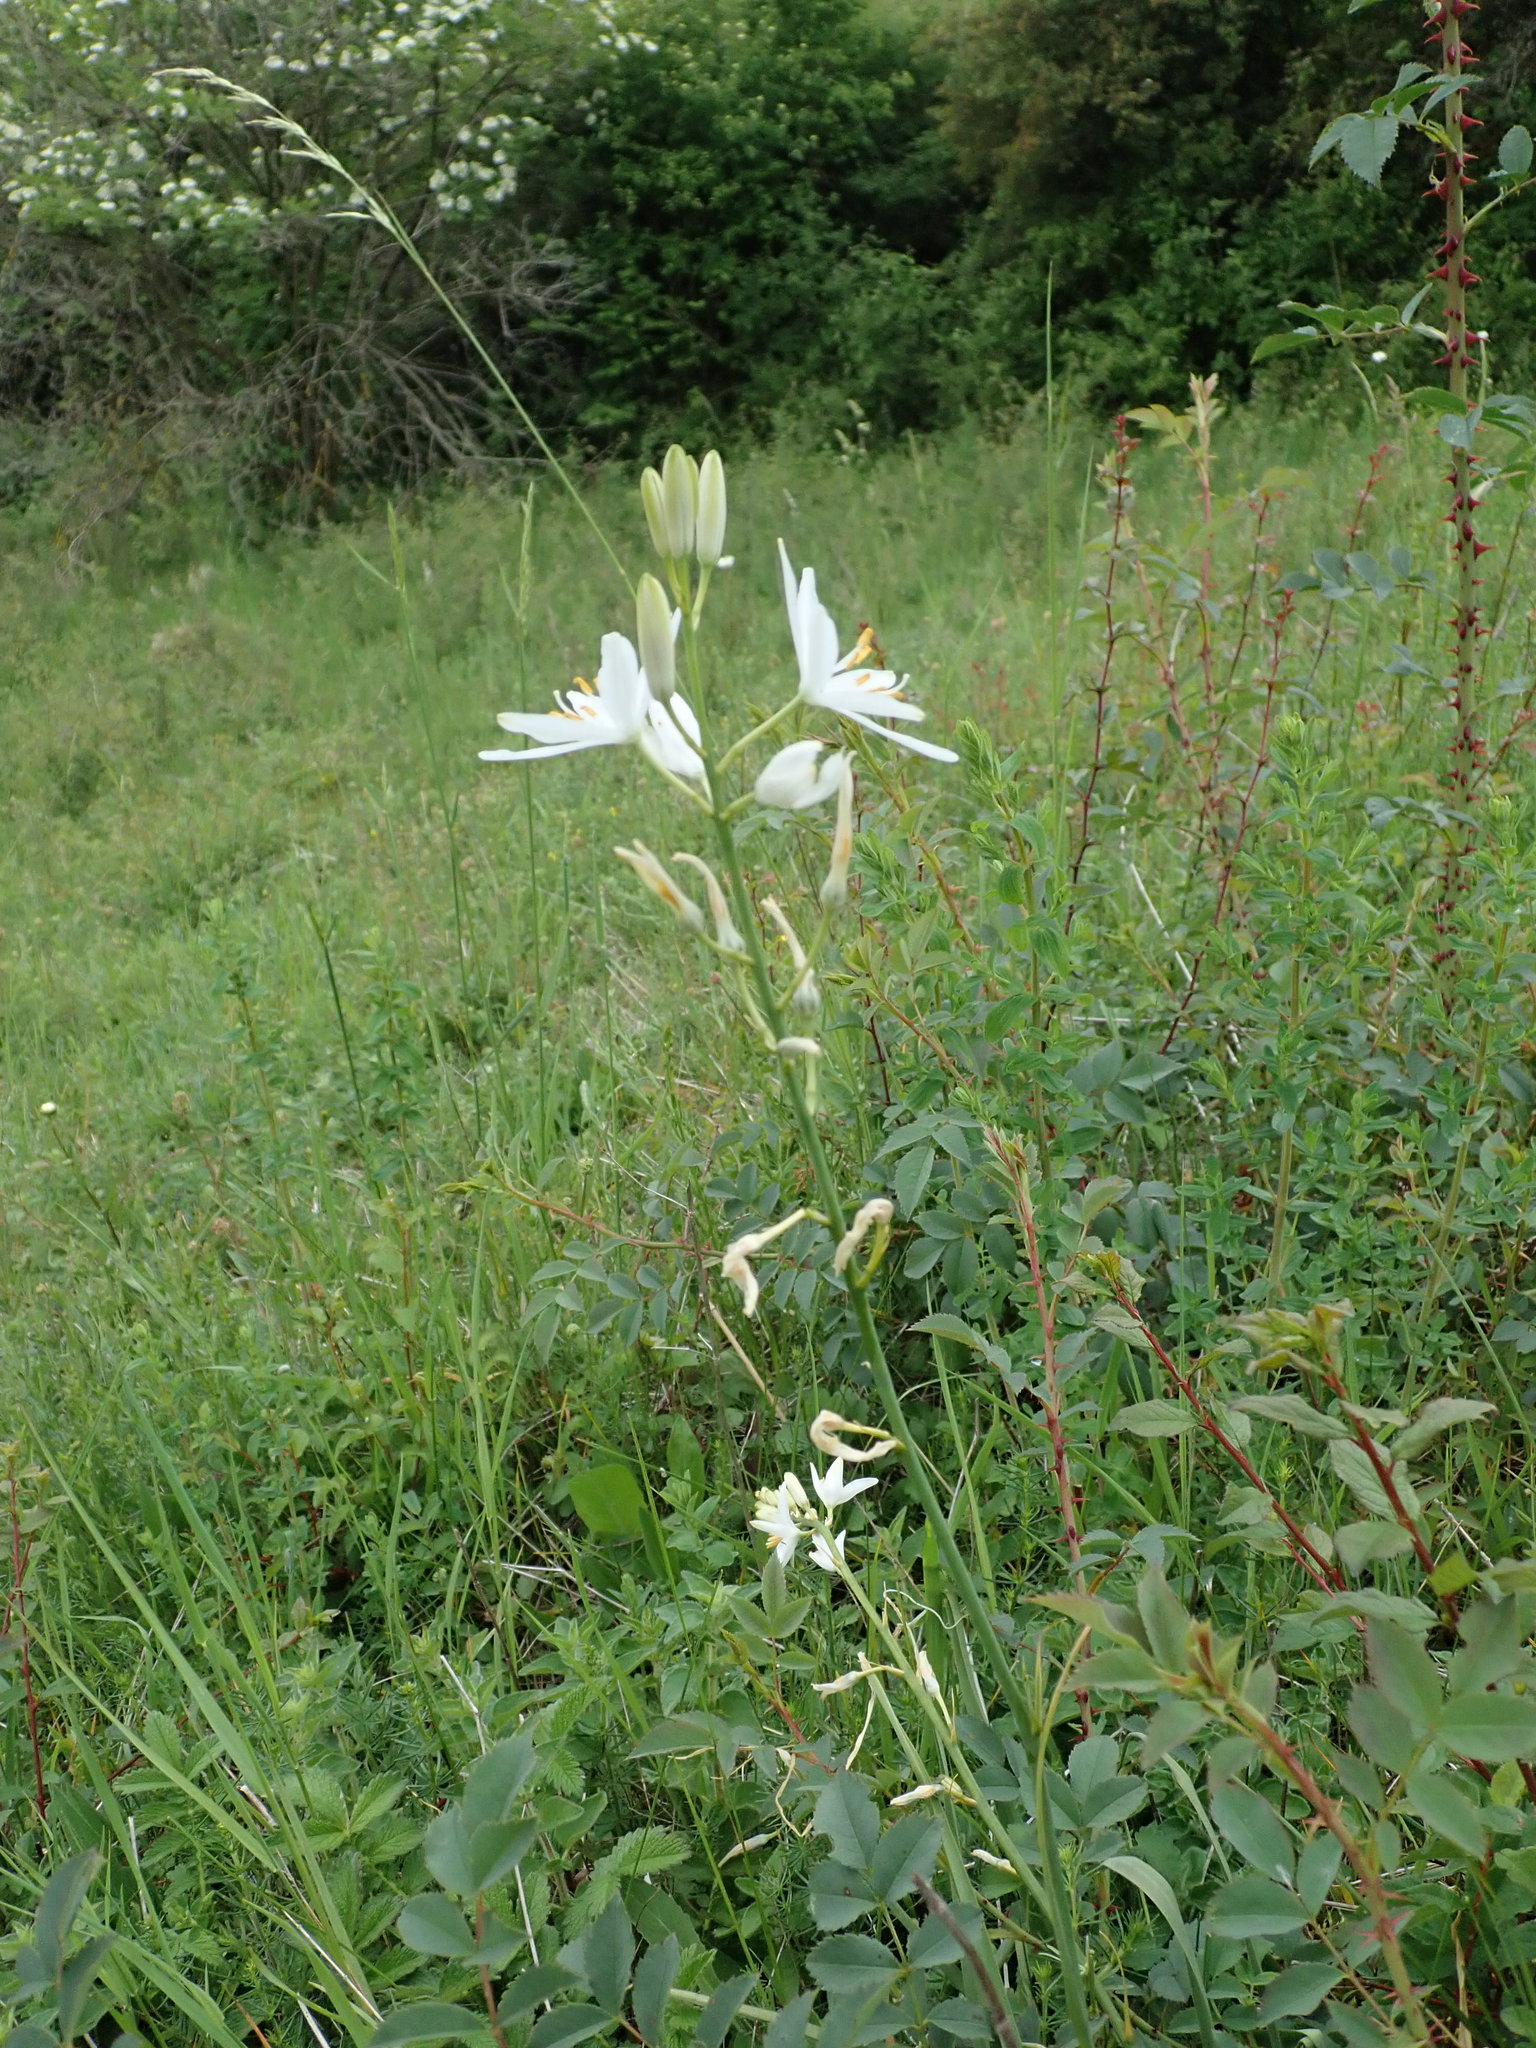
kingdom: Plantae
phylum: Tracheophyta
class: Liliopsida
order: Asparagales
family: Asparagaceae
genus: Anthericum
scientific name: Anthericum liliago
